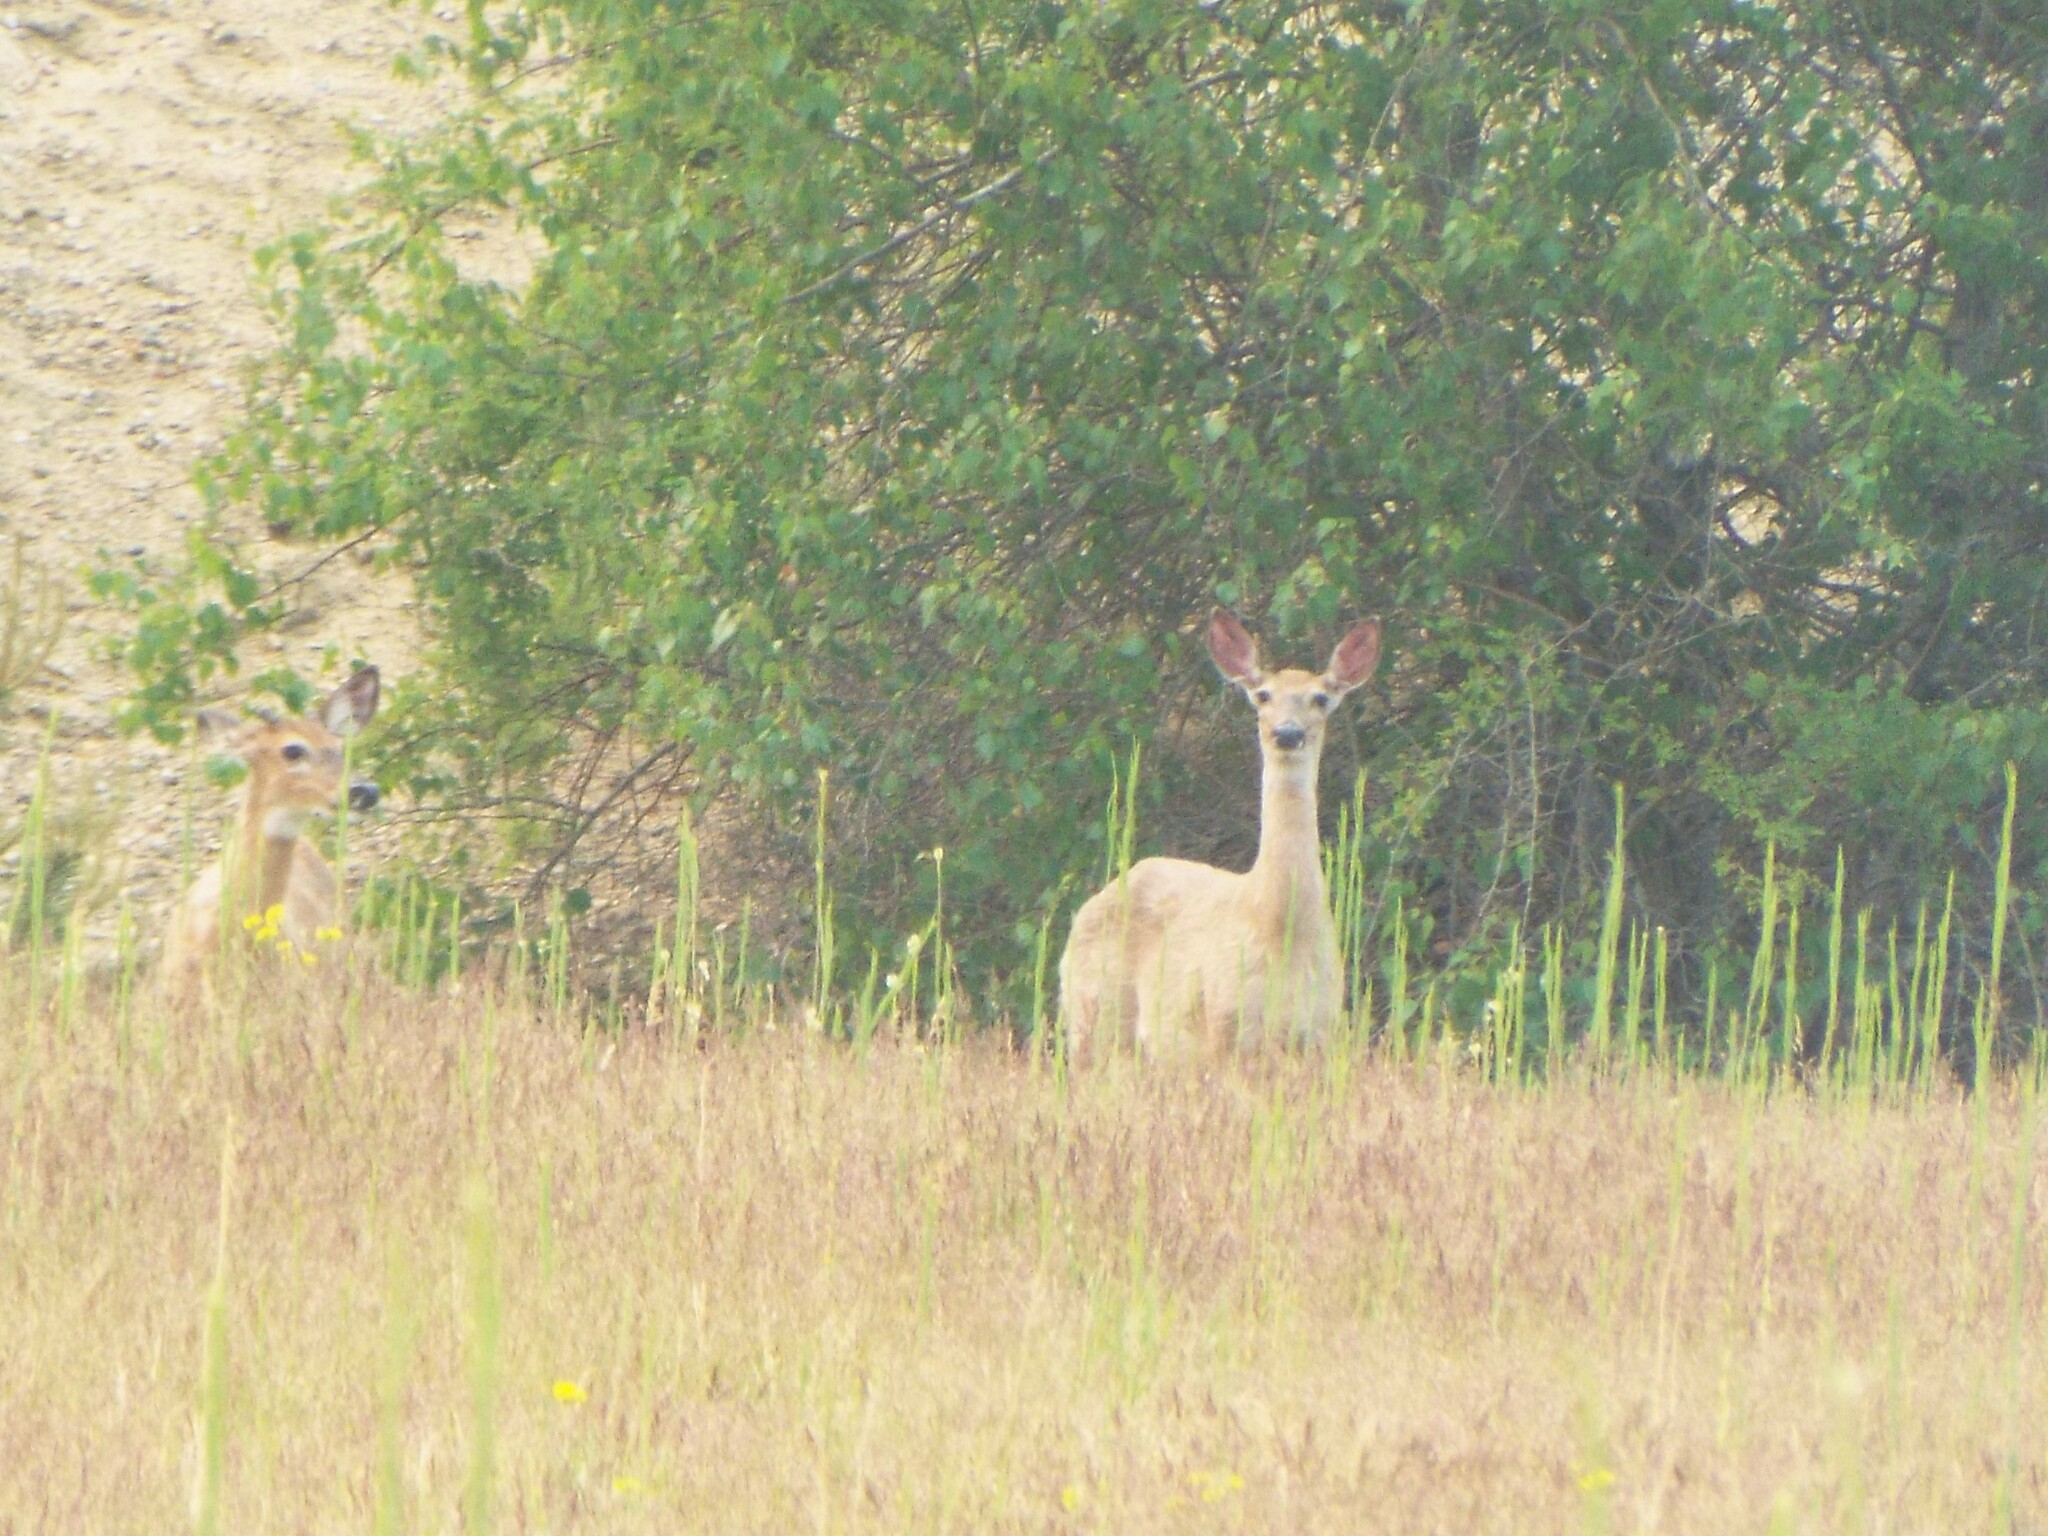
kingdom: Animalia
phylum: Chordata
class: Mammalia
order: Artiodactyla
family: Cervidae
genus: Odocoileus
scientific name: Odocoileus virginianus
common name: White-tailed deer
